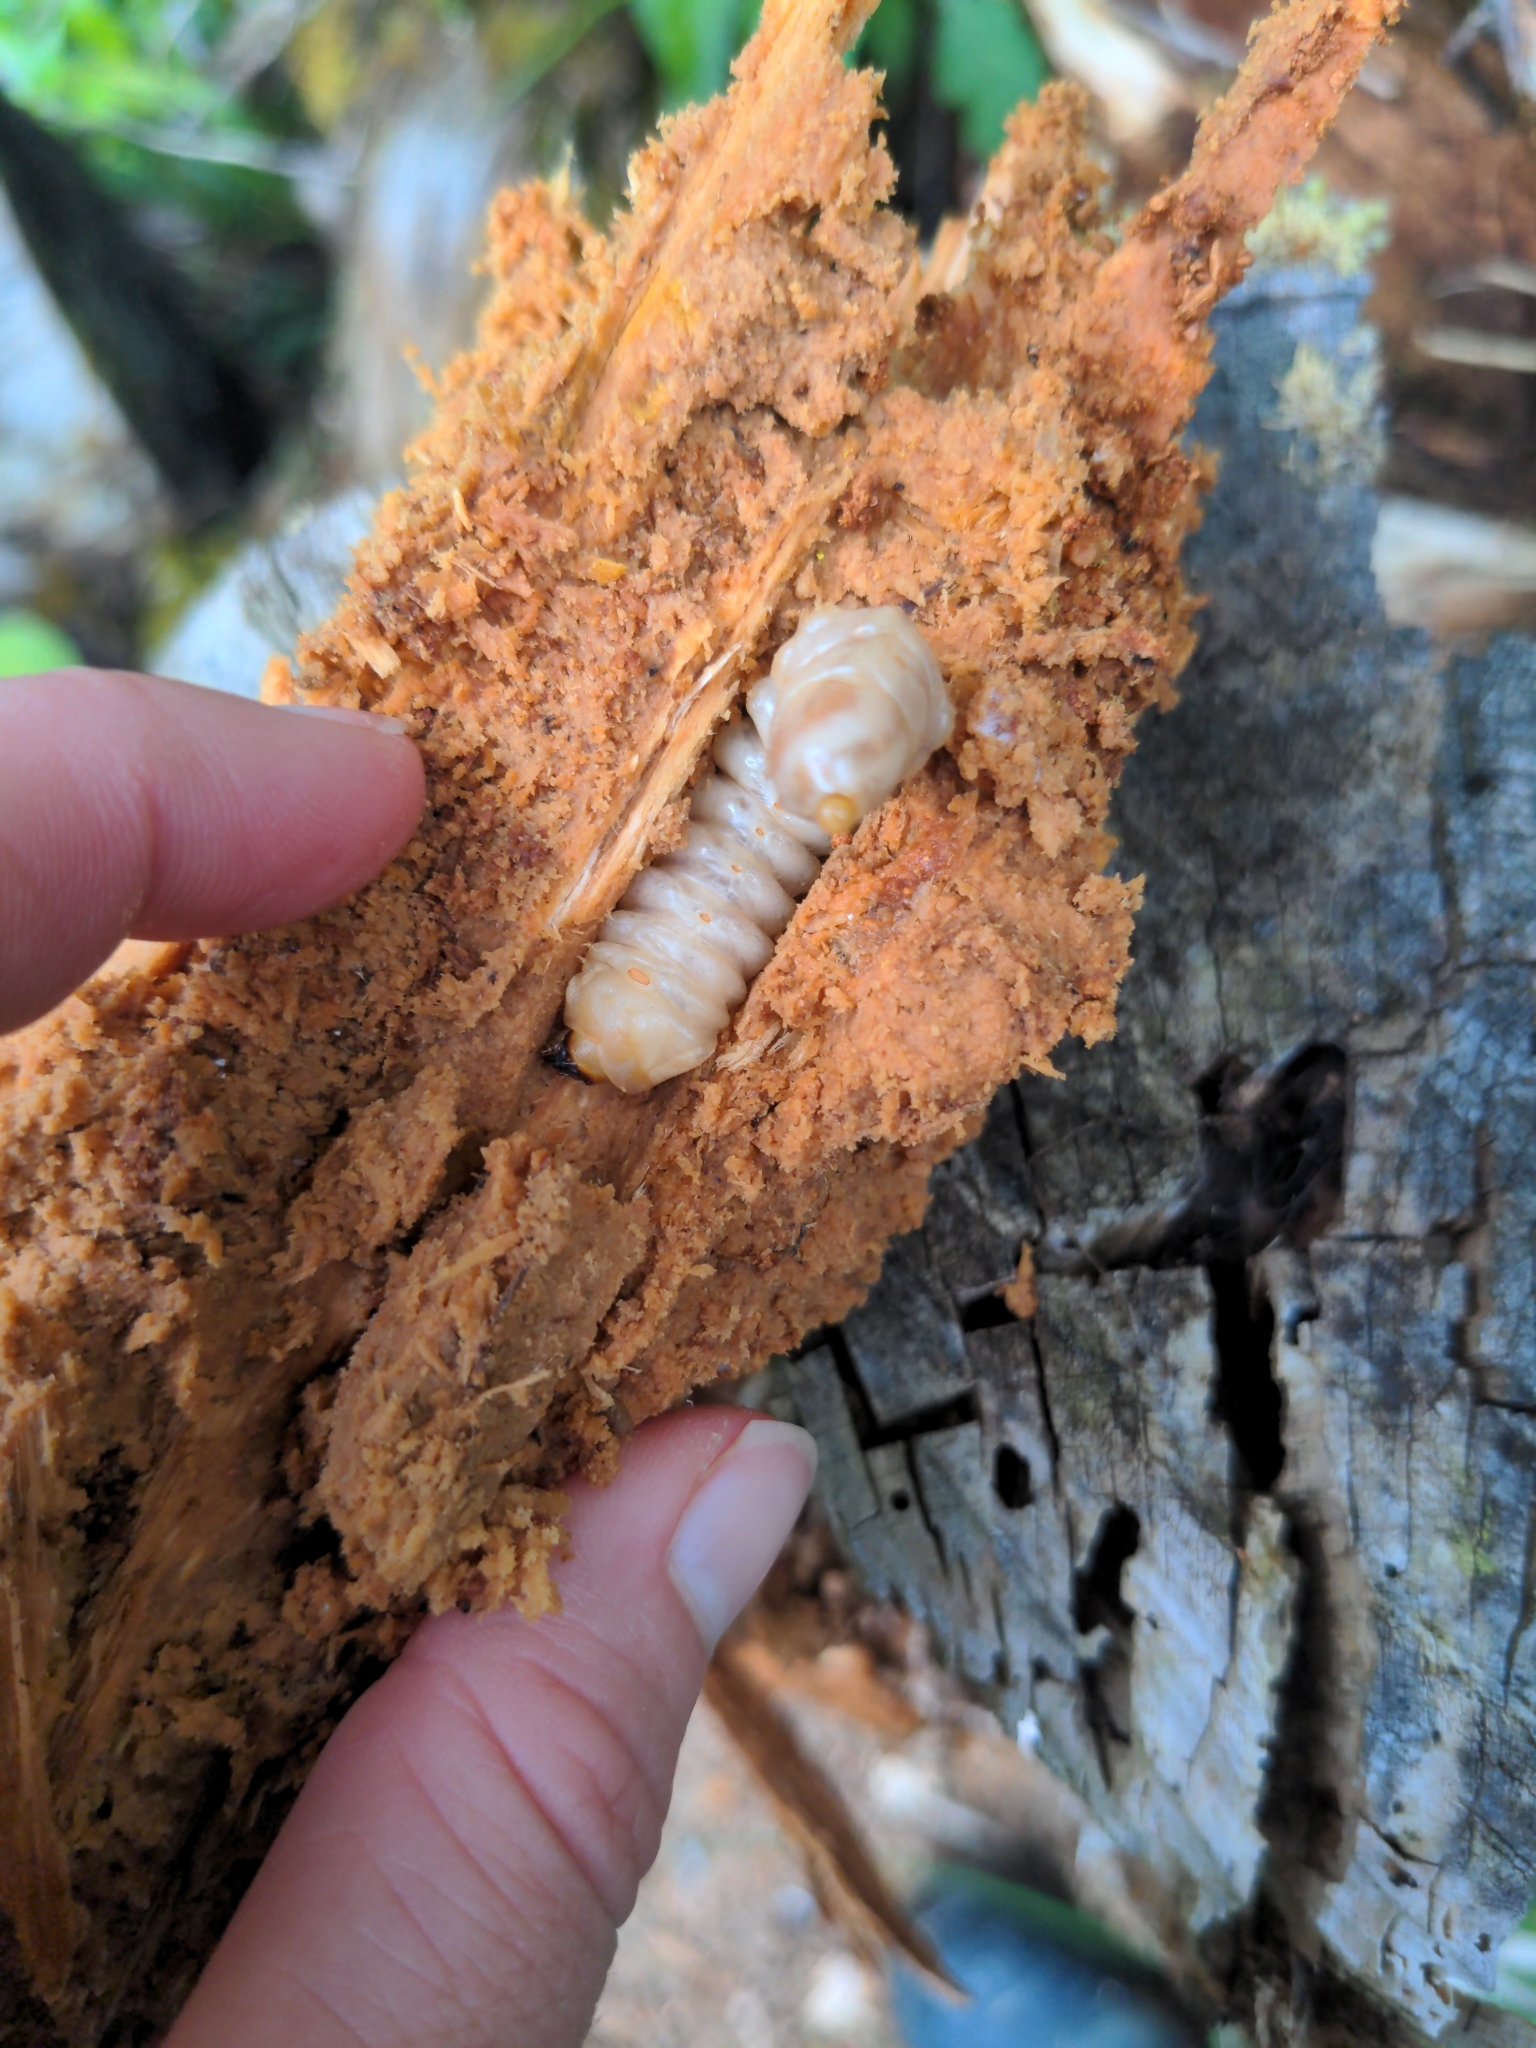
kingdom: Animalia
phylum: Arthropoda
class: Insecta
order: Coleoptera
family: Cerambycidae
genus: Prionoplus
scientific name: Prionoplus reticularis
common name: Huhu beetle
